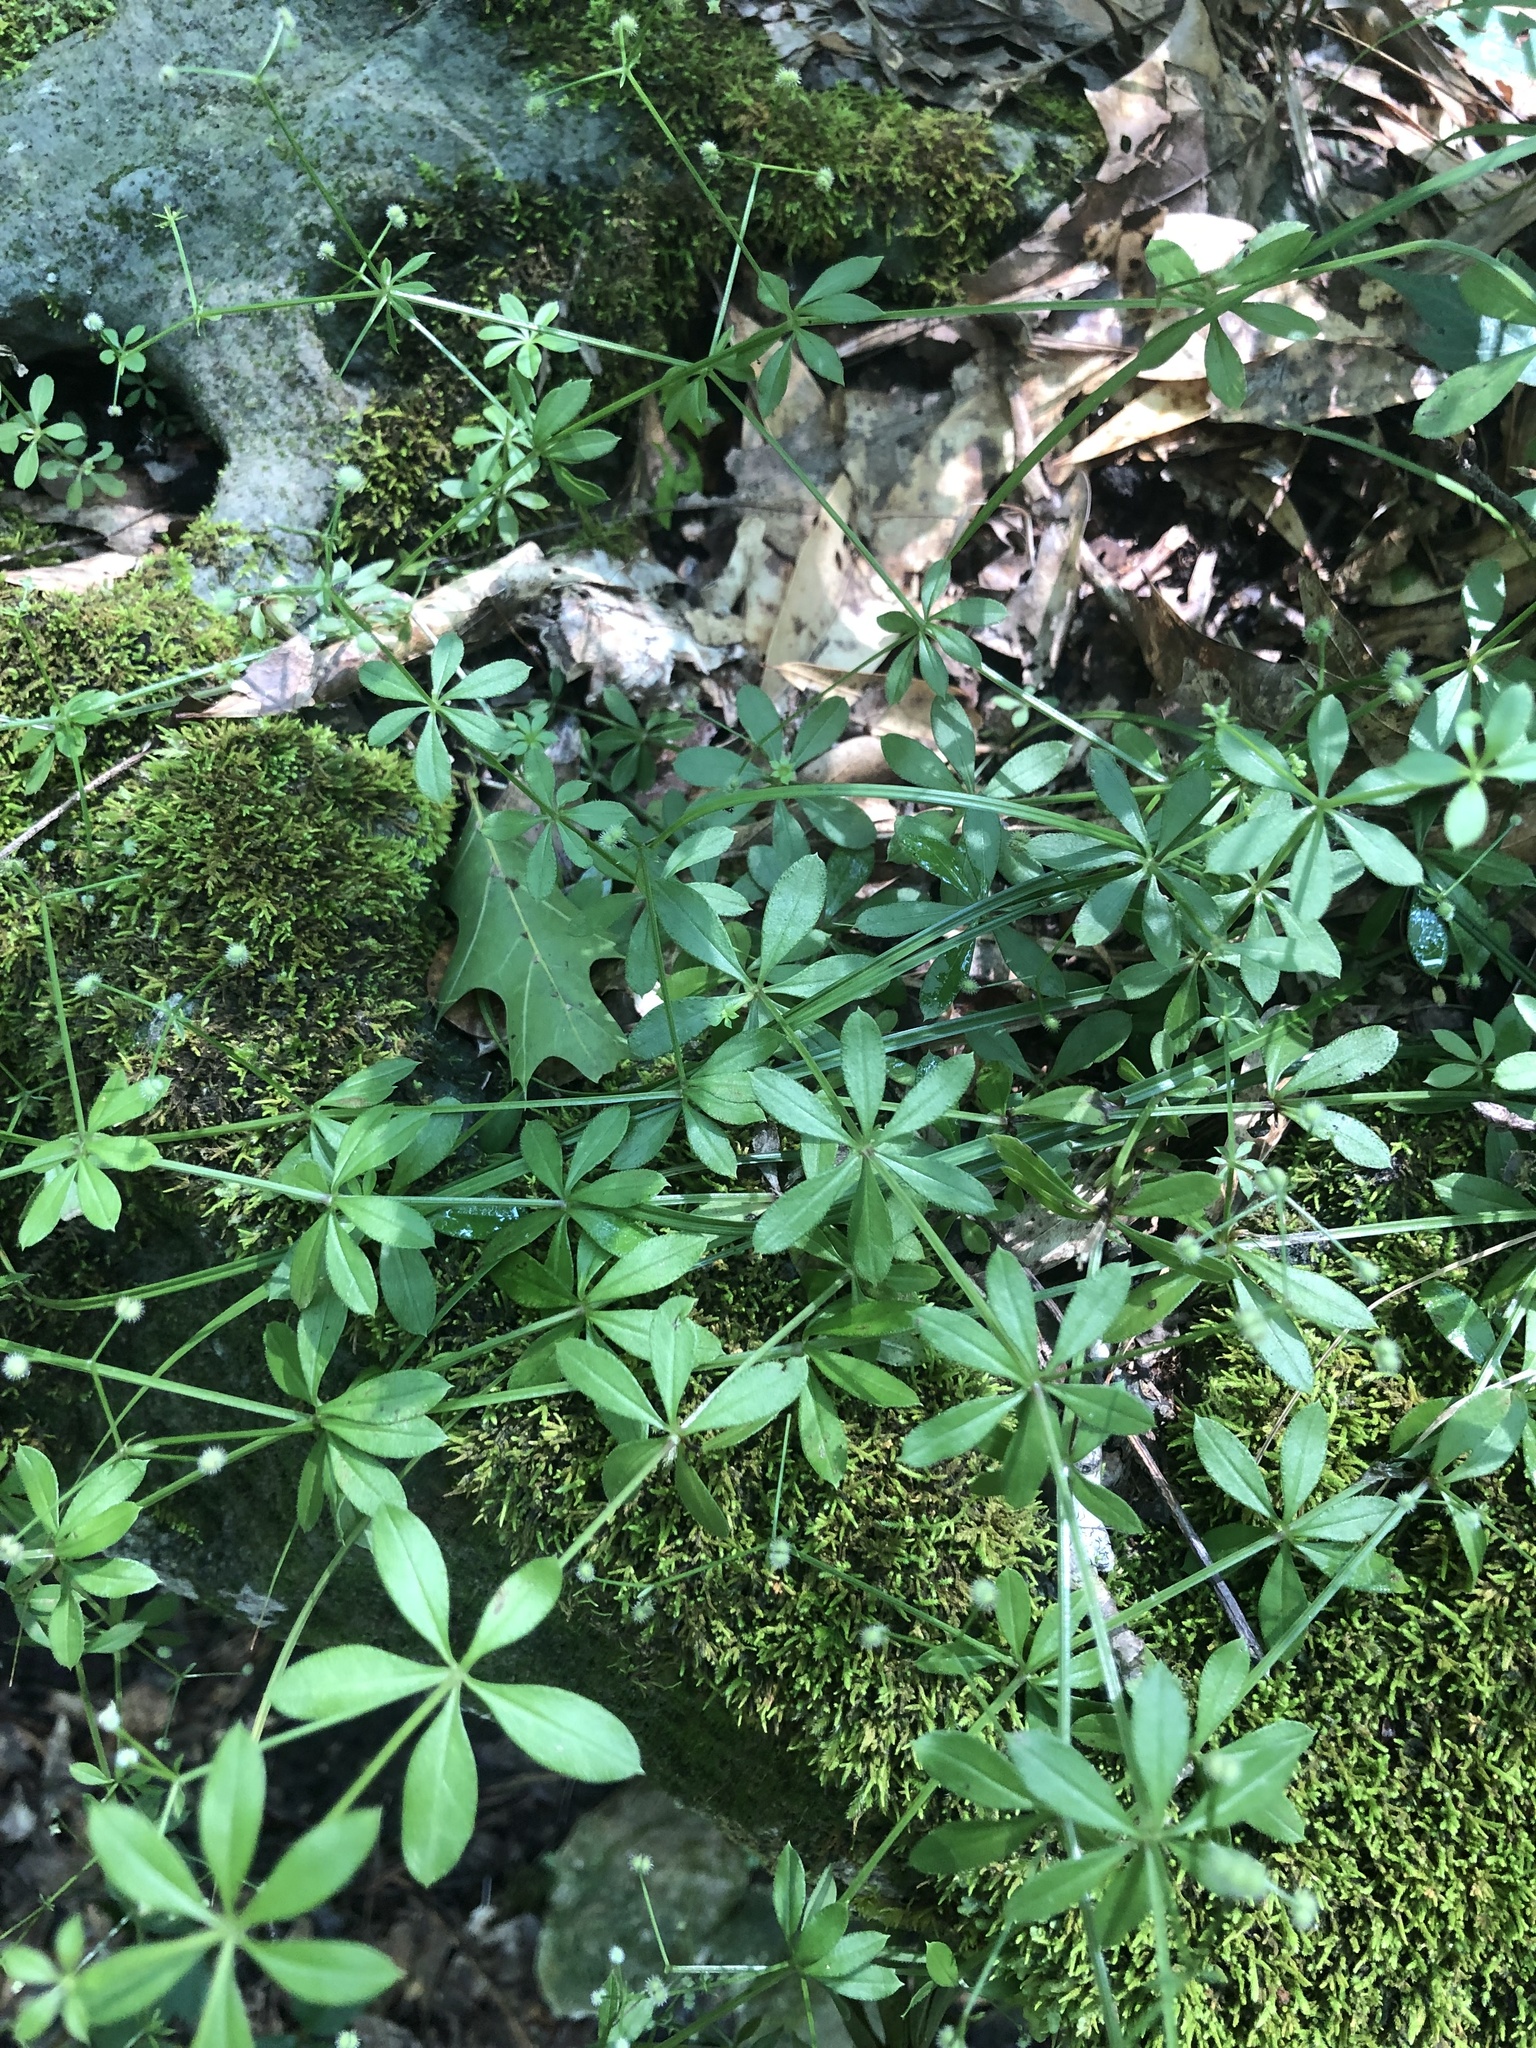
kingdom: Plantae
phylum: Tracheophyta
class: Magnoliopsida
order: Gentianales
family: Rubiaceae
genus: Galium
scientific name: Galium triflorum
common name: Fragrant bedstraw
